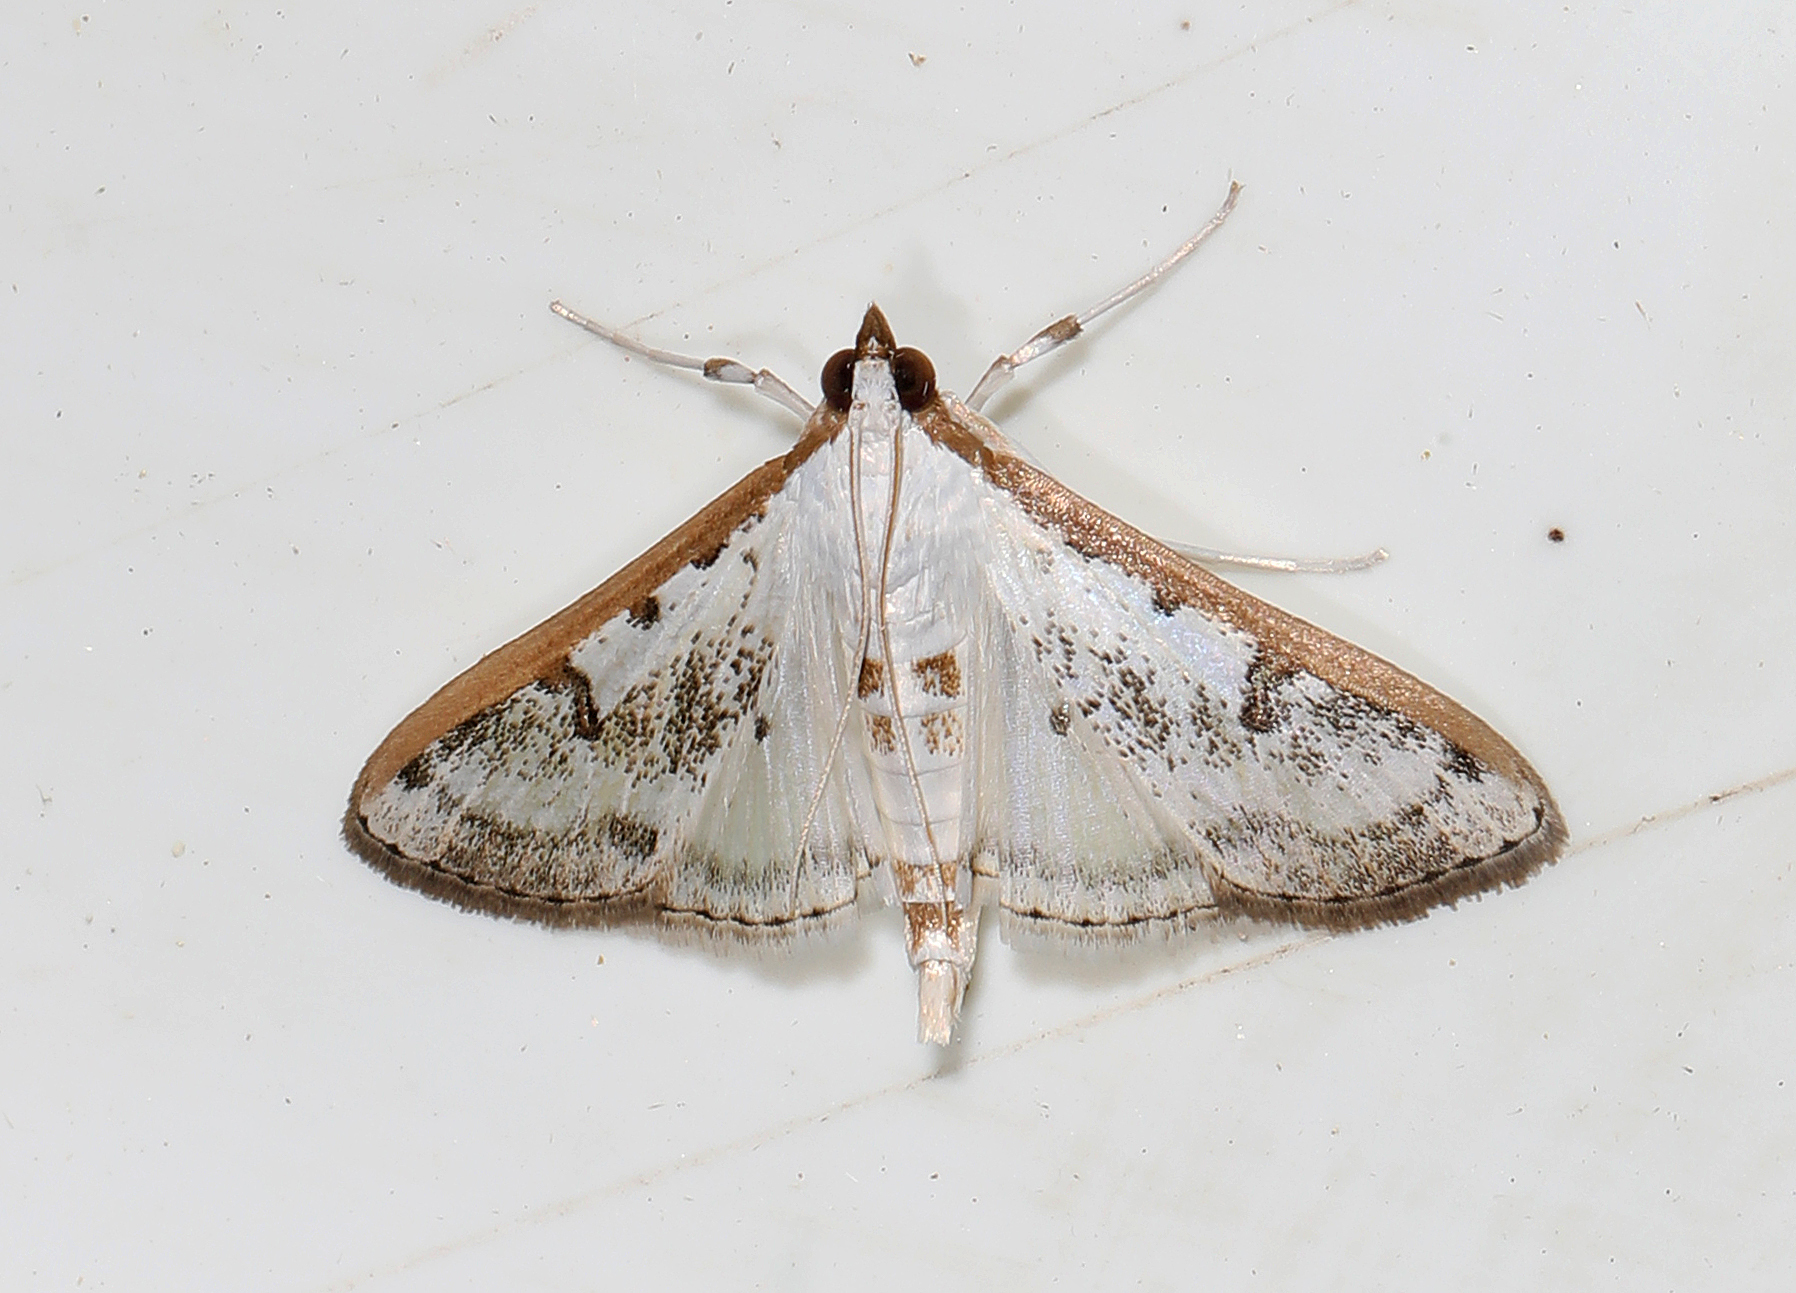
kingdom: Animalia
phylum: Arthropoda
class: Insecta
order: Lepidoptera
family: Crambidae
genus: Palpita
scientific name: Palpita gracilalis
